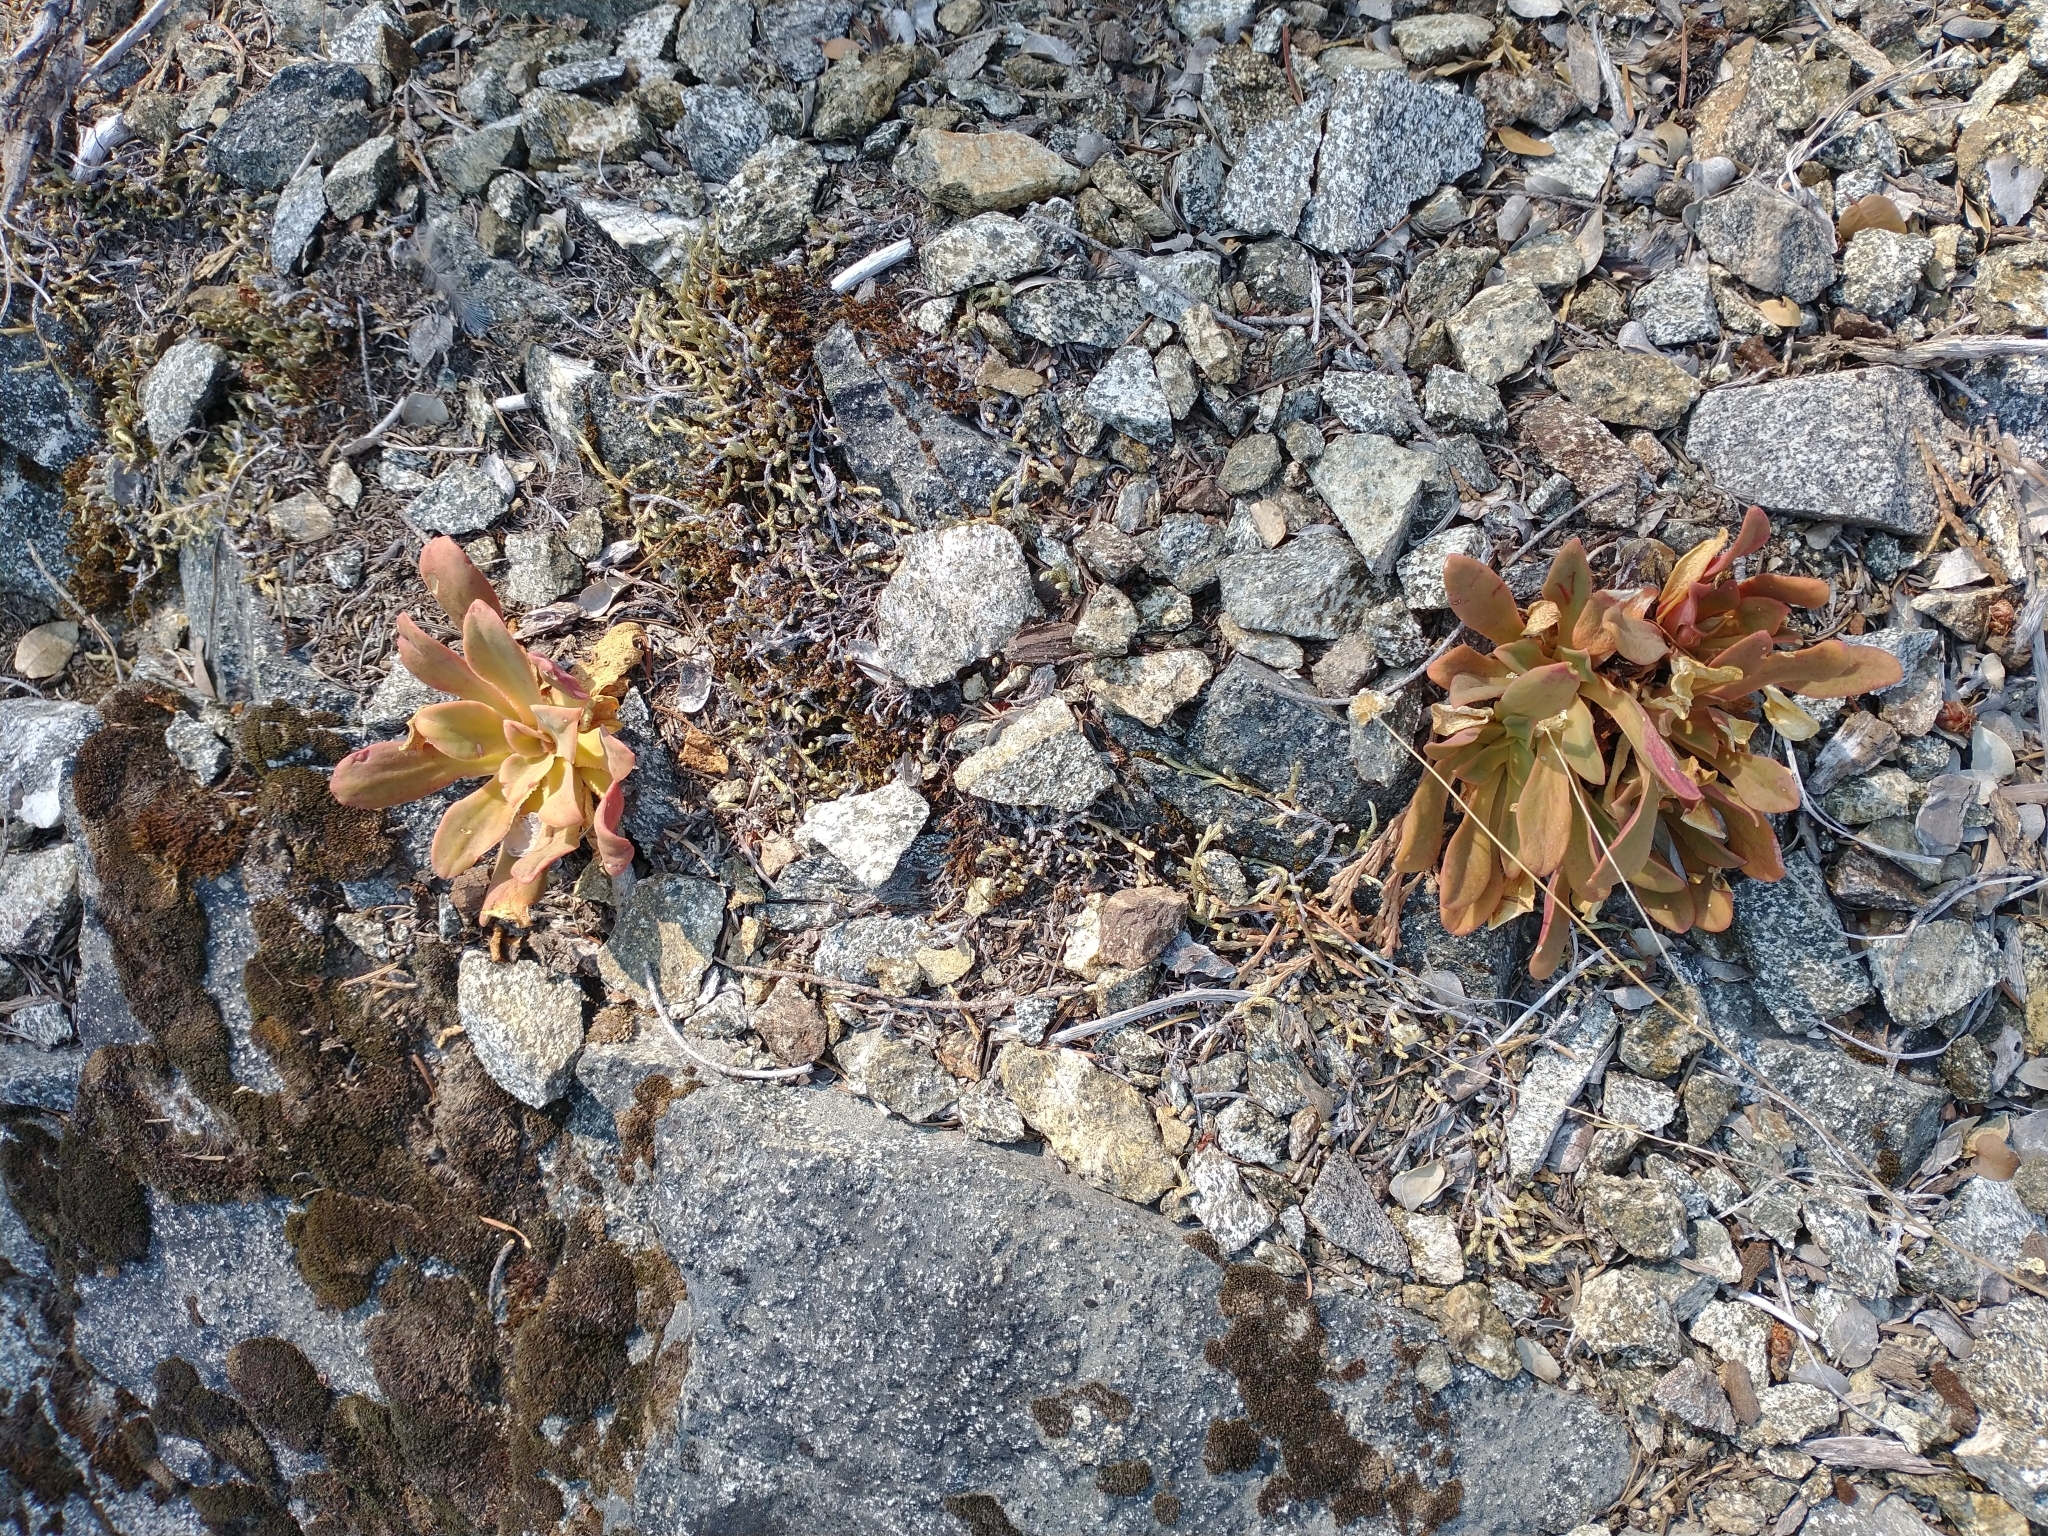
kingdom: Plantae
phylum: Tracheophyta
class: Magnoliopsida
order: Caryophyllales
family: Montiaceae
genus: Lewisia
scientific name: Lewisia cotyledon
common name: Siskiyou lewisia
